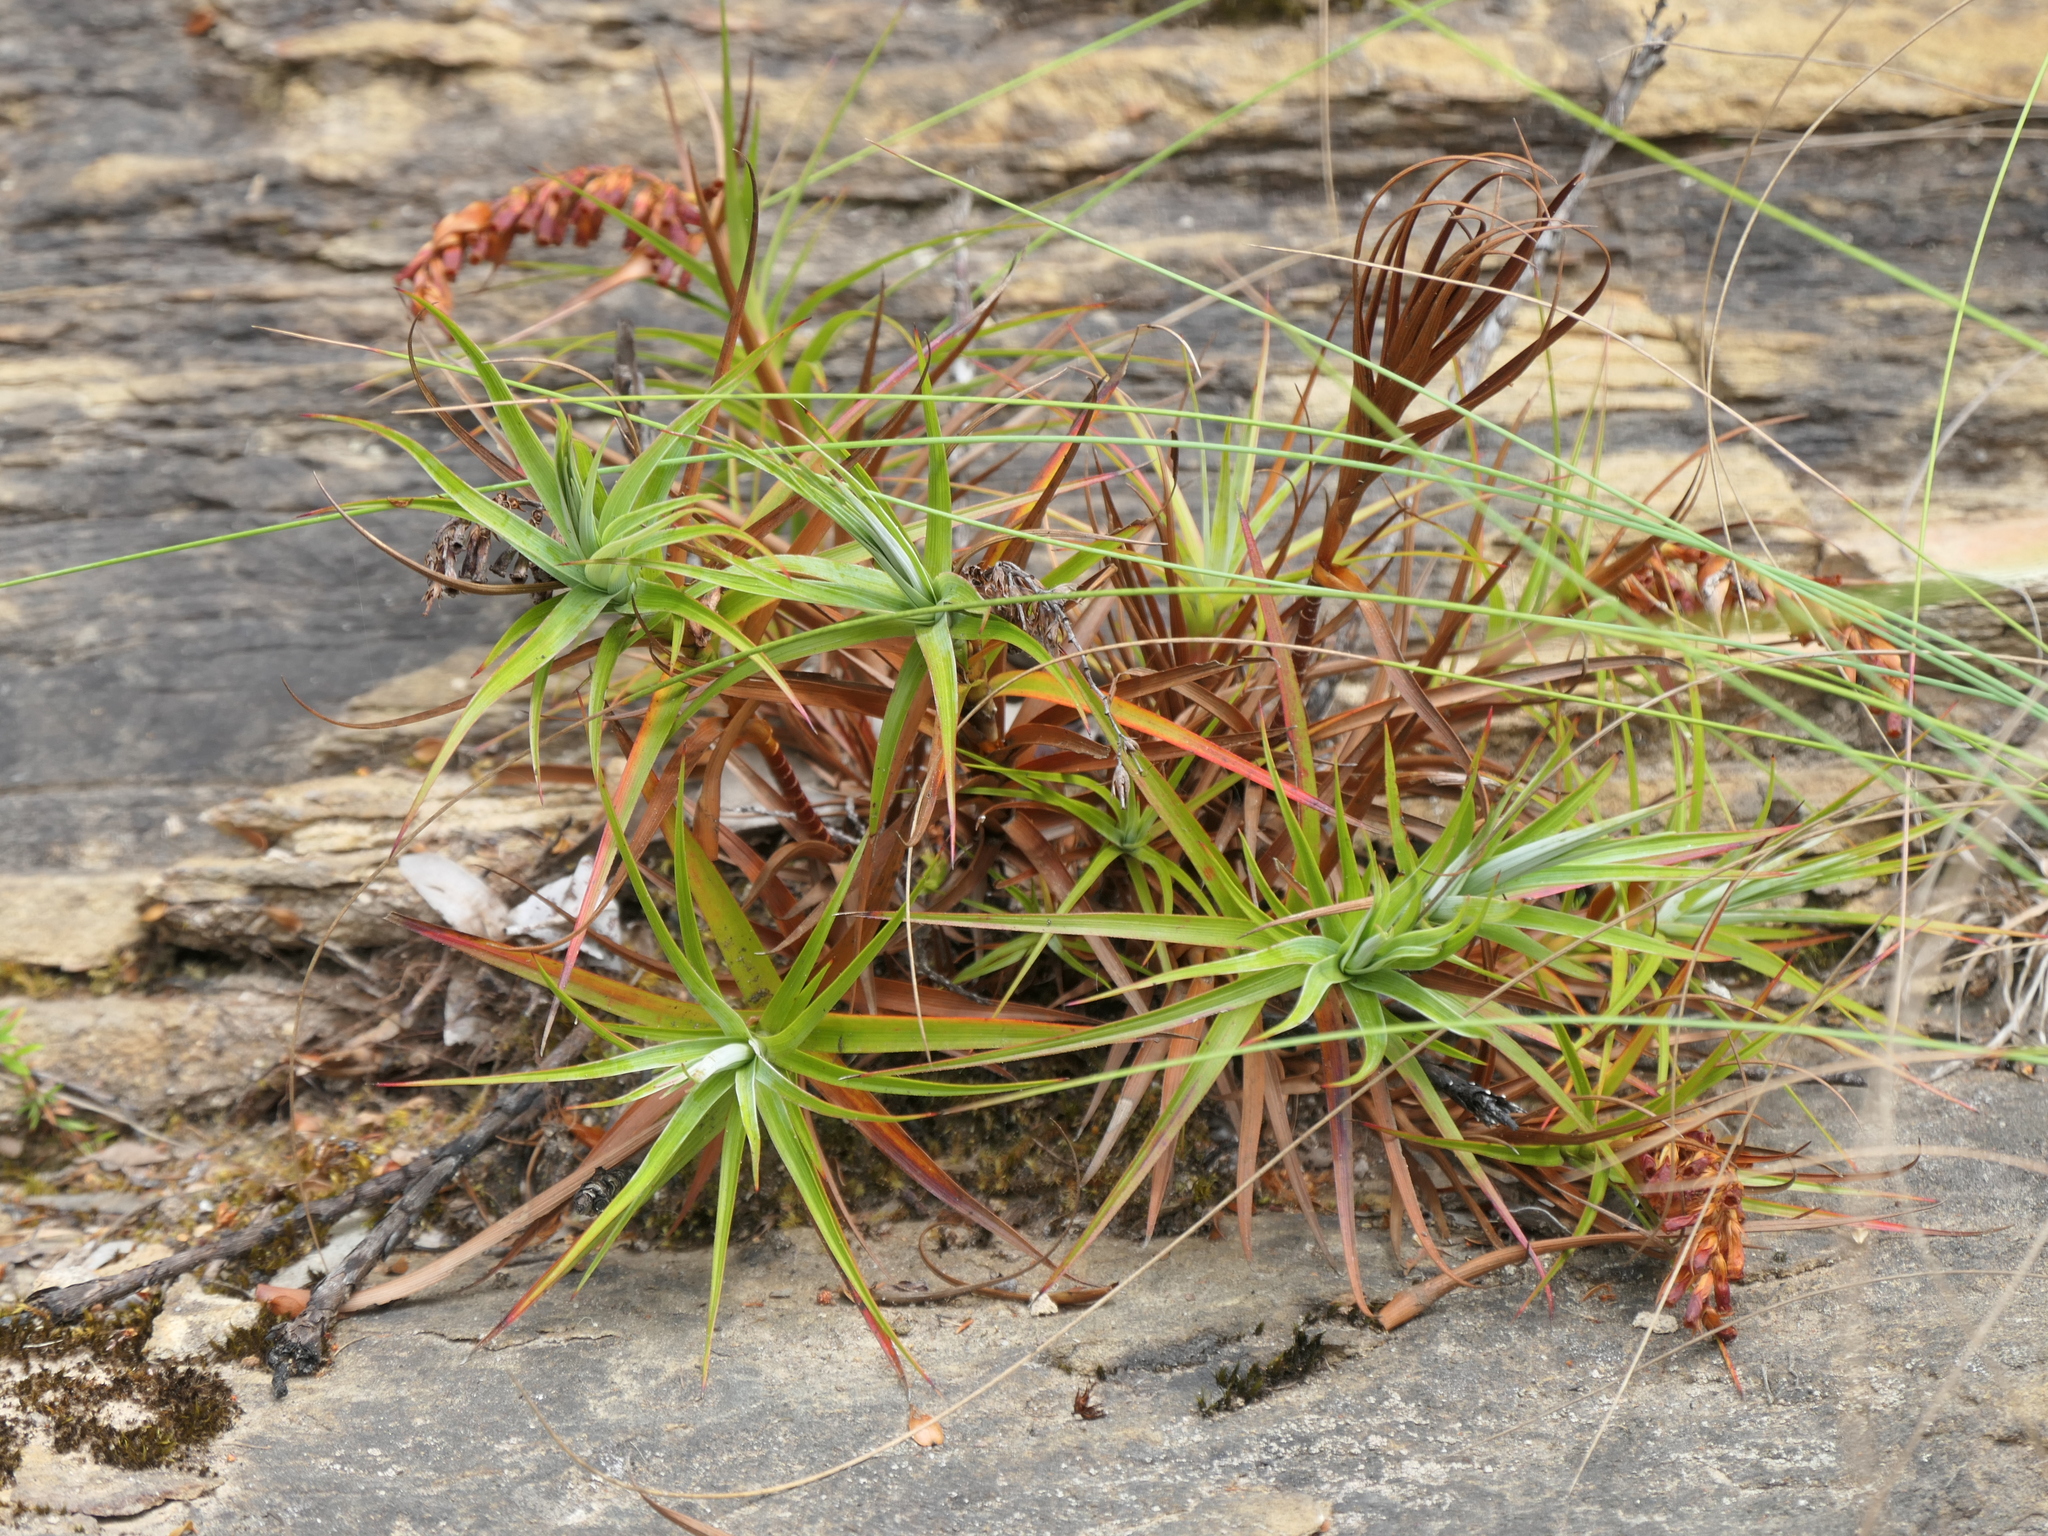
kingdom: Plantae
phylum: Tracheophyta
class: Magnoliopsida
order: Ericales
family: Ericaceae
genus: Dracophyllum
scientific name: Dracophyllum secundum
